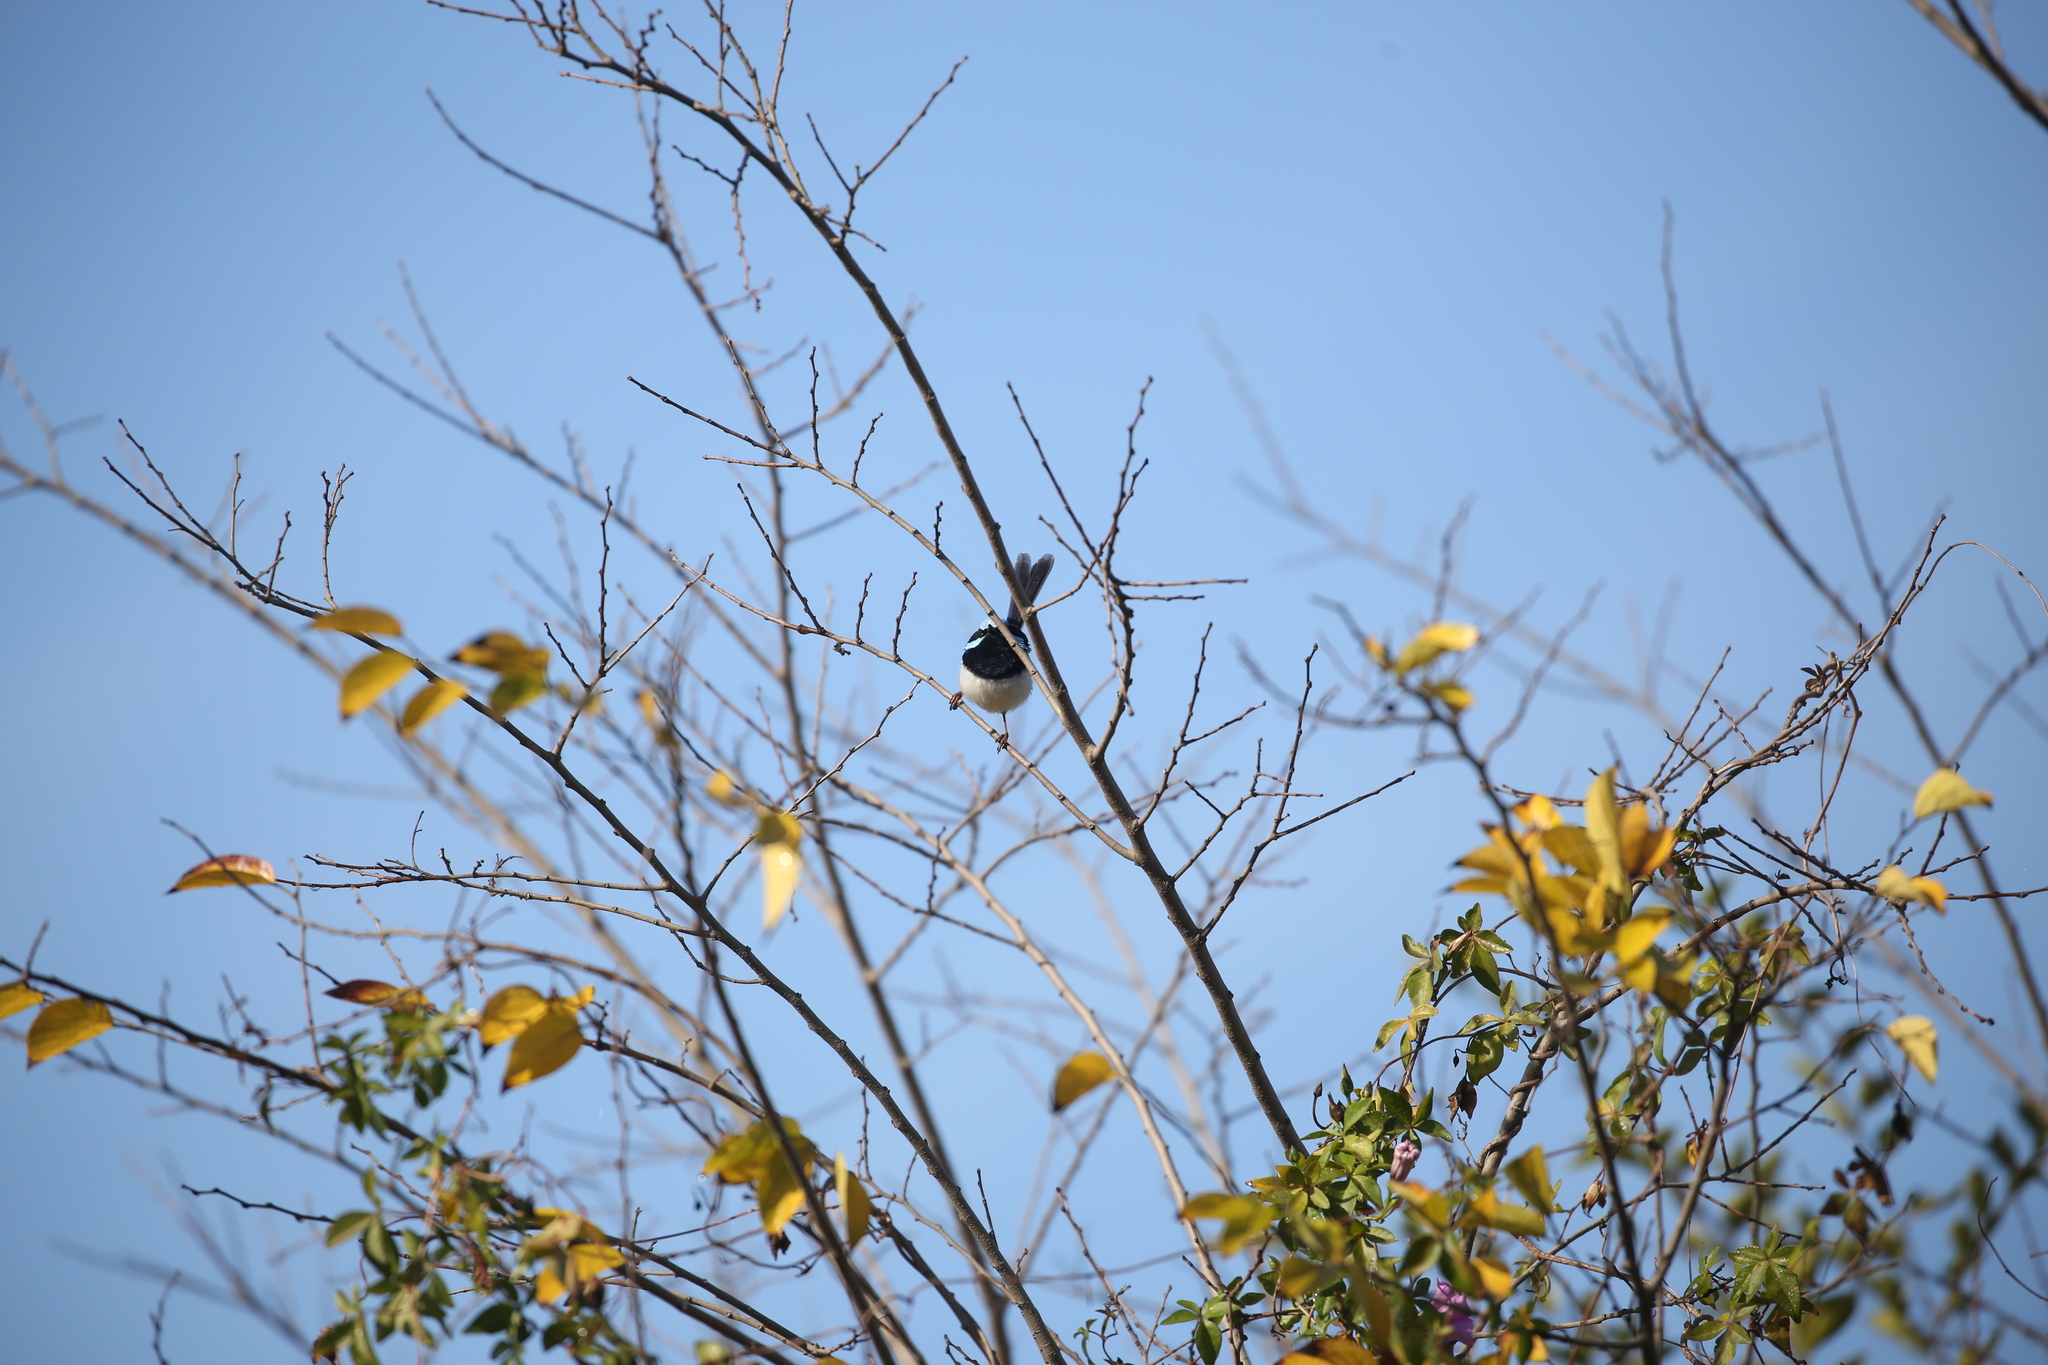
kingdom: Animalia
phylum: Chordata
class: Aves
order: Passeriformes
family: Maluridae
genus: Malurus
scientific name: Malurus cyaneus
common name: Superb fairywren
